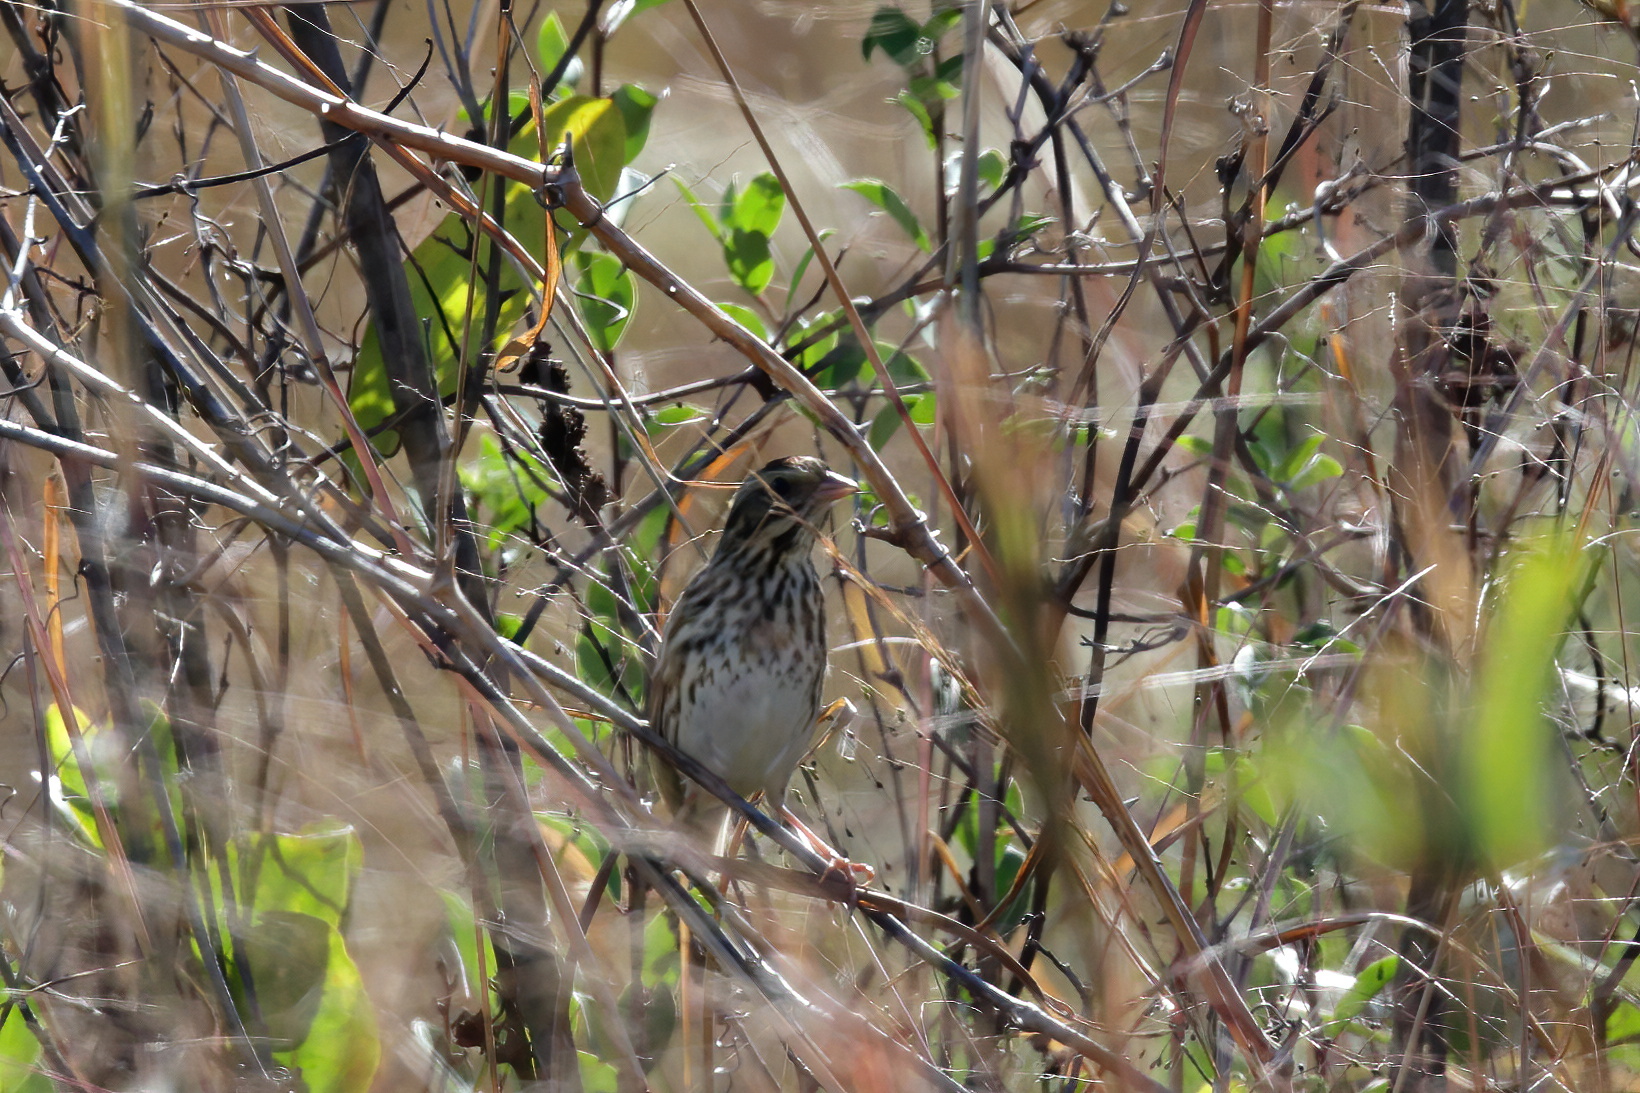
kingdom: Animalia
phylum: Chordata
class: Aves
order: Passeriformes
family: Passerellidae
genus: Passerculus
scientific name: Passerculus sandwichensis
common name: Savannah sparrow
